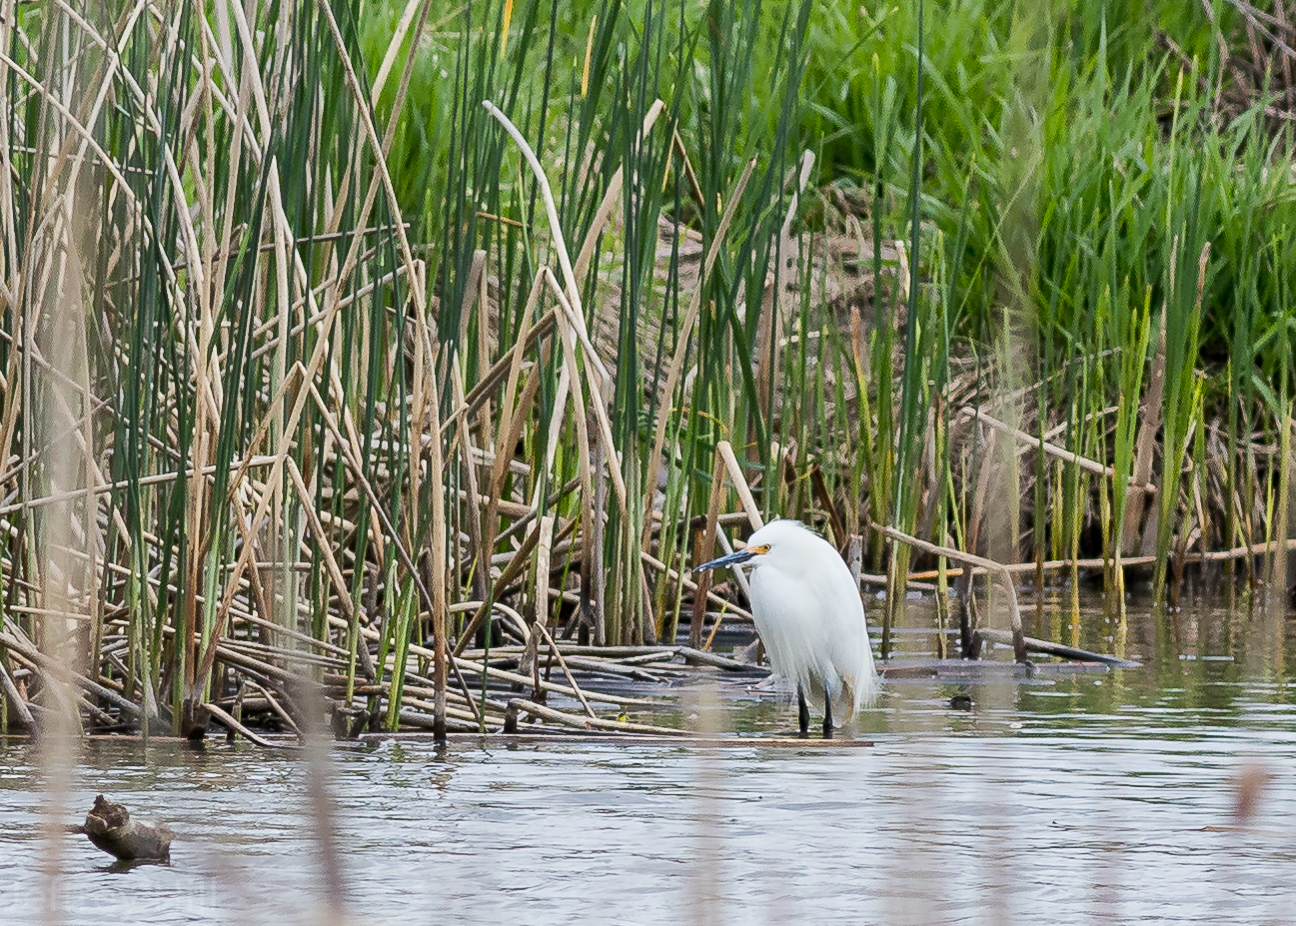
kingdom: Animalia
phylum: Chordata
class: Aves
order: Pelecaniformes
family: Ardeidae
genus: Ardea
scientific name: Ardea alba
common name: Great egret
